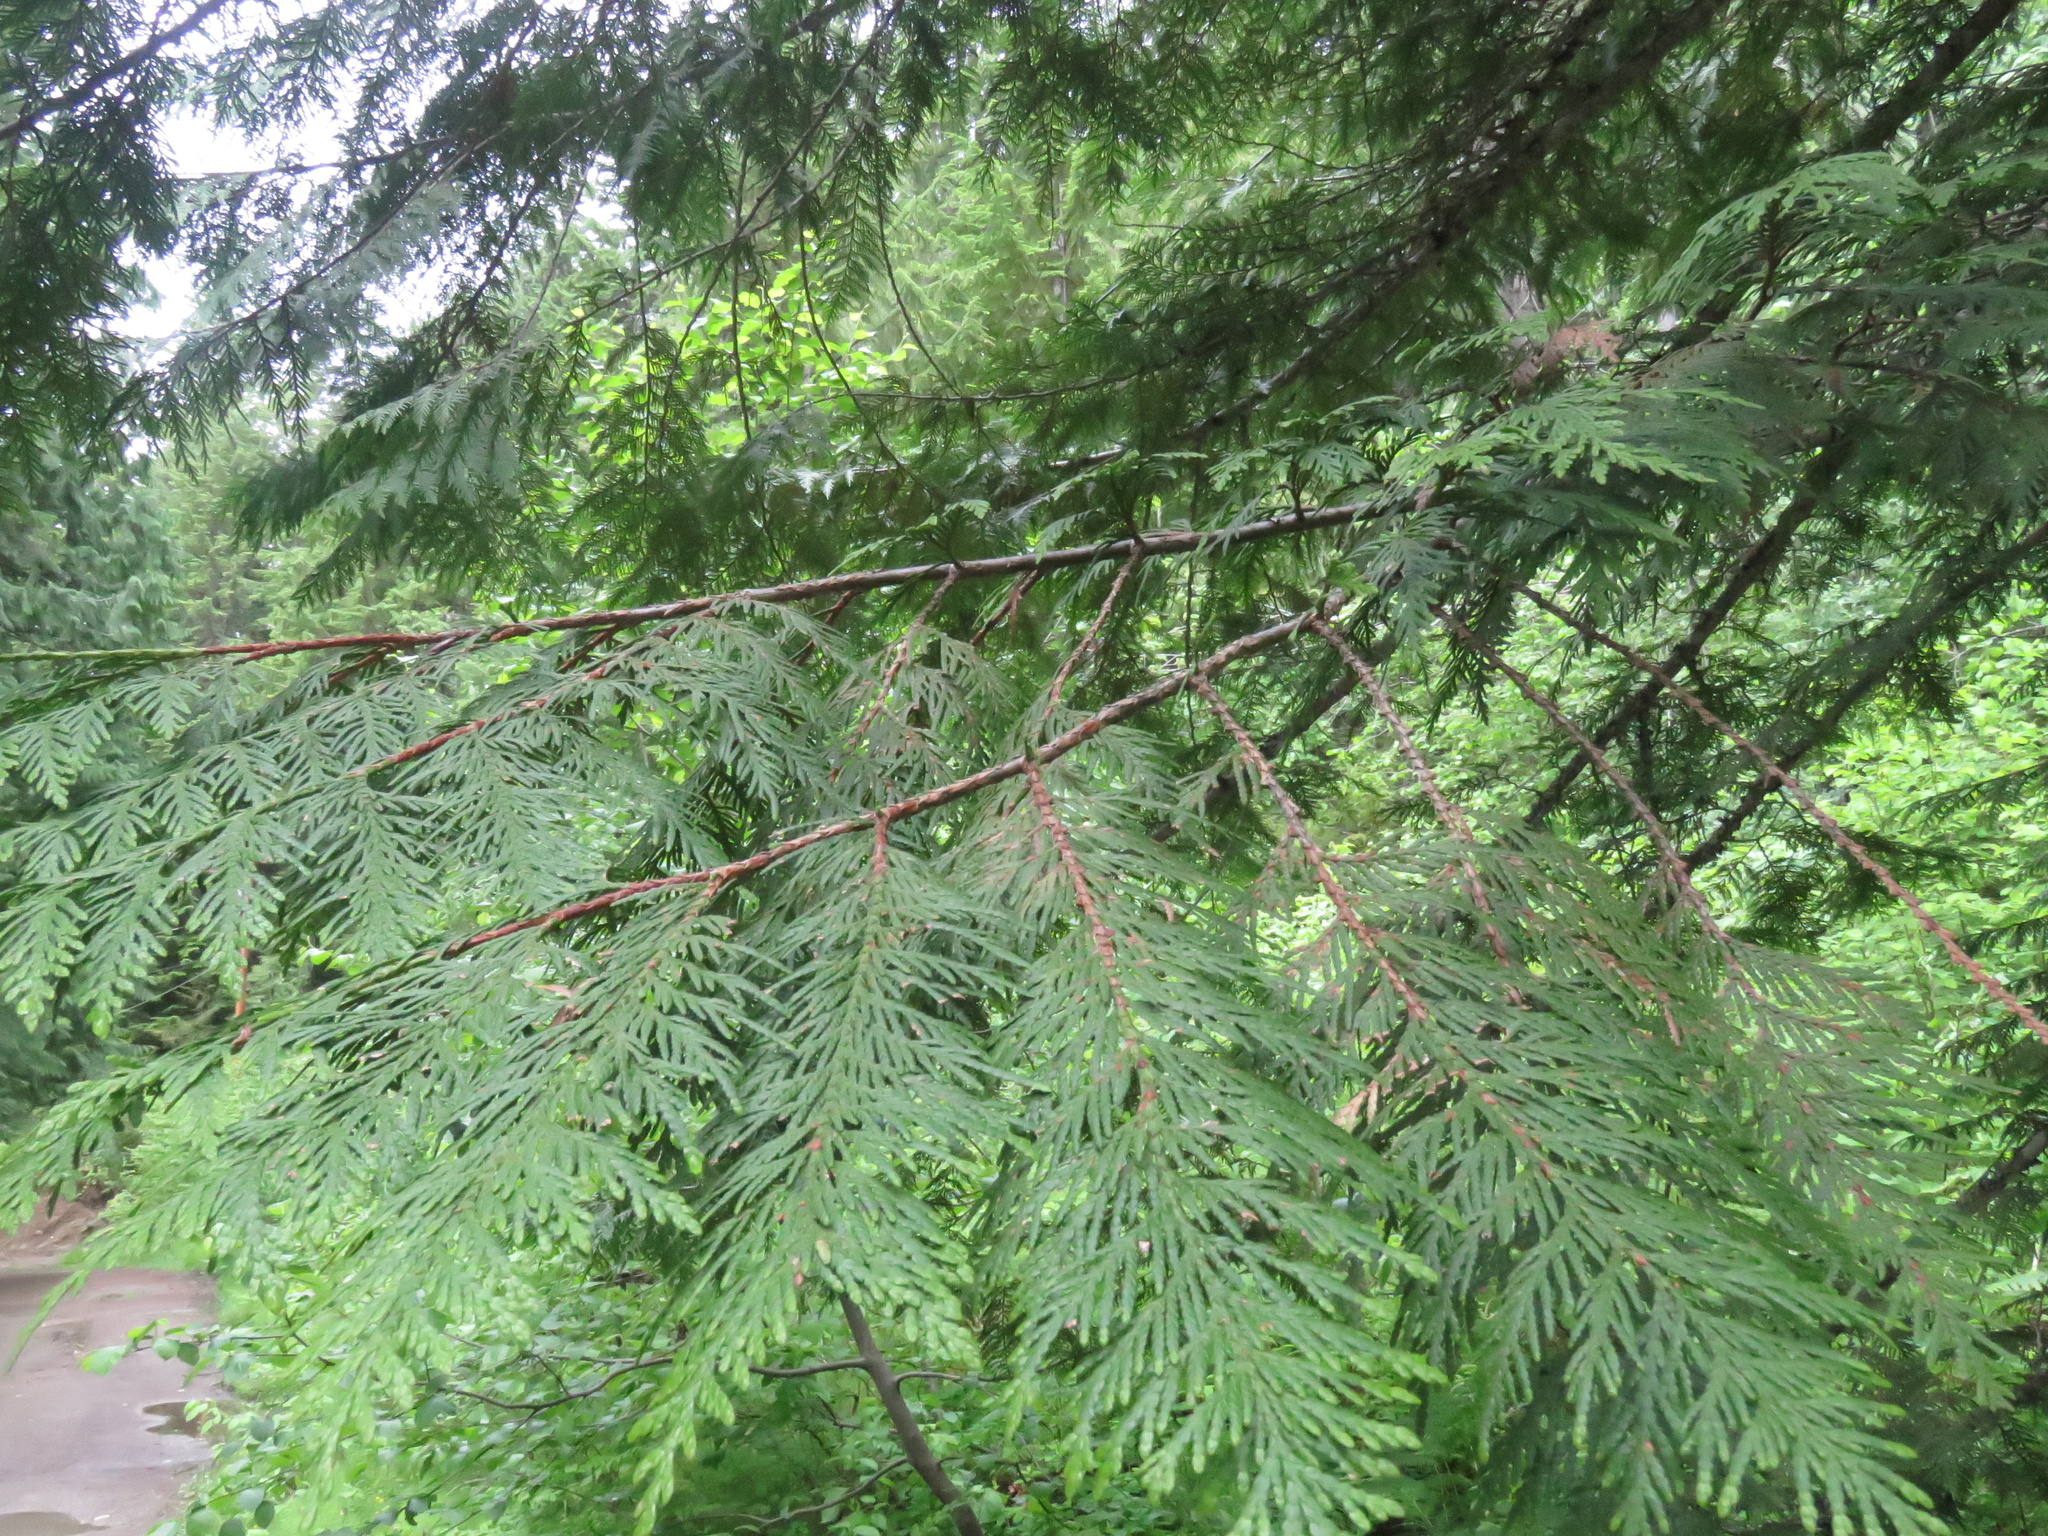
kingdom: Plantae
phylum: Tracheophyta
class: Pinopsida
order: Pinales
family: Cupressaceae
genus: Thuja
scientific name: Thuja plicata
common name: Western red-cedar
